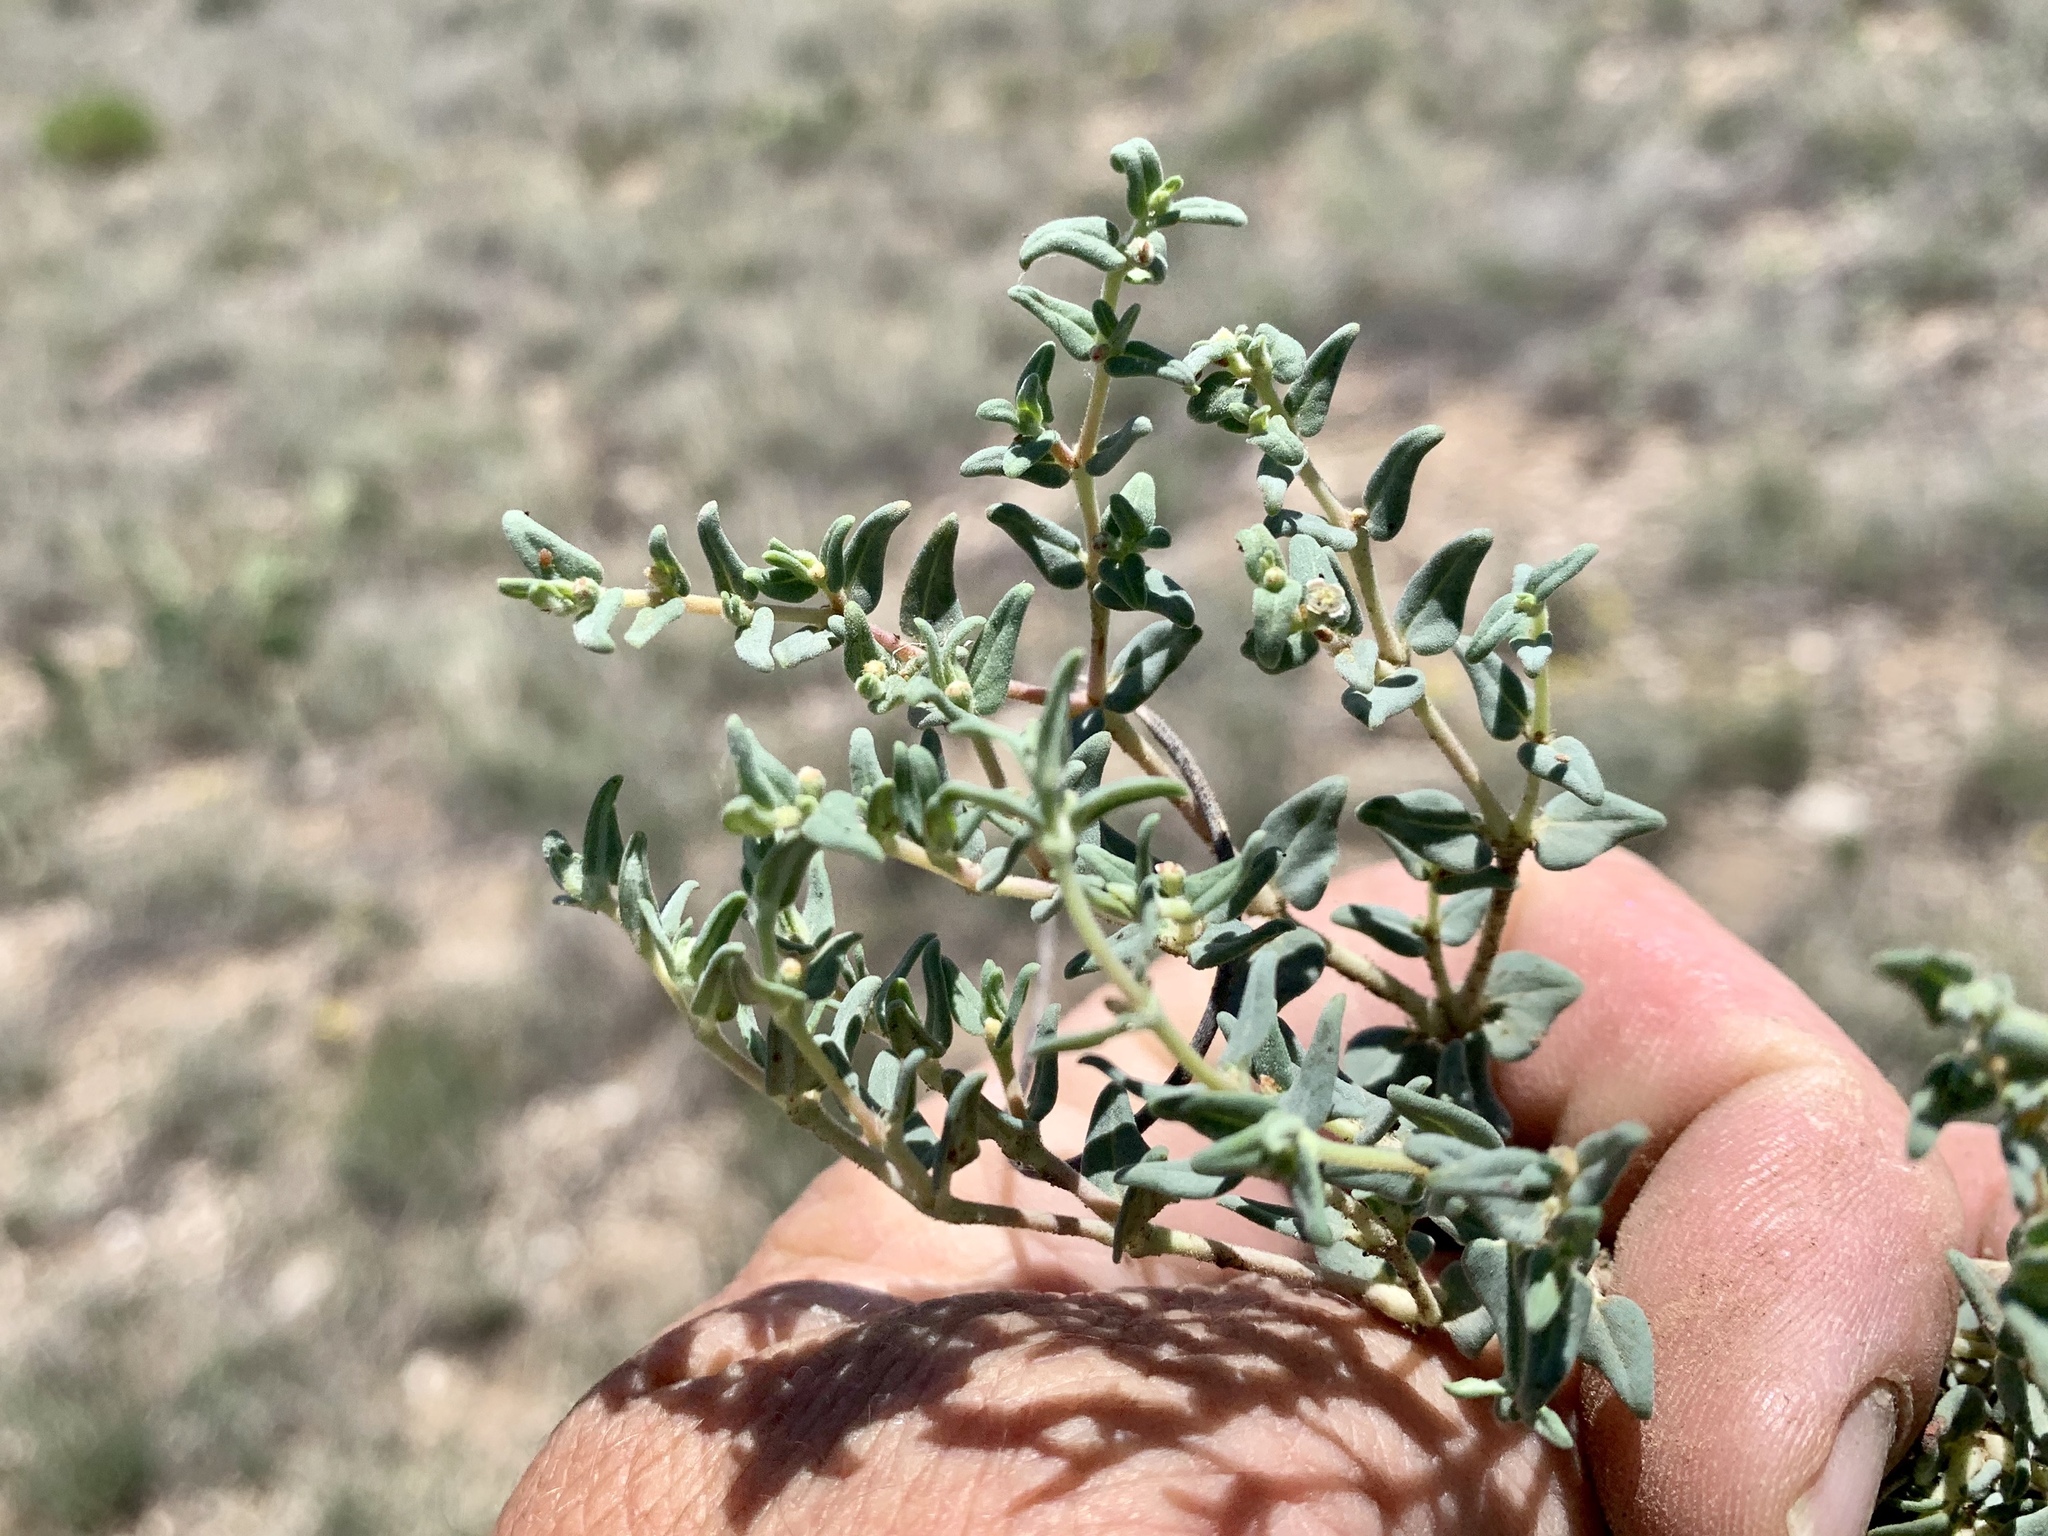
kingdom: Plantae
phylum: Tracheophyta
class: Magnoliopsida
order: Malpighiales
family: Euphorbiaceae
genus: Euphorbia
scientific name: Euphorbia lata
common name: Hoary euphorbia
